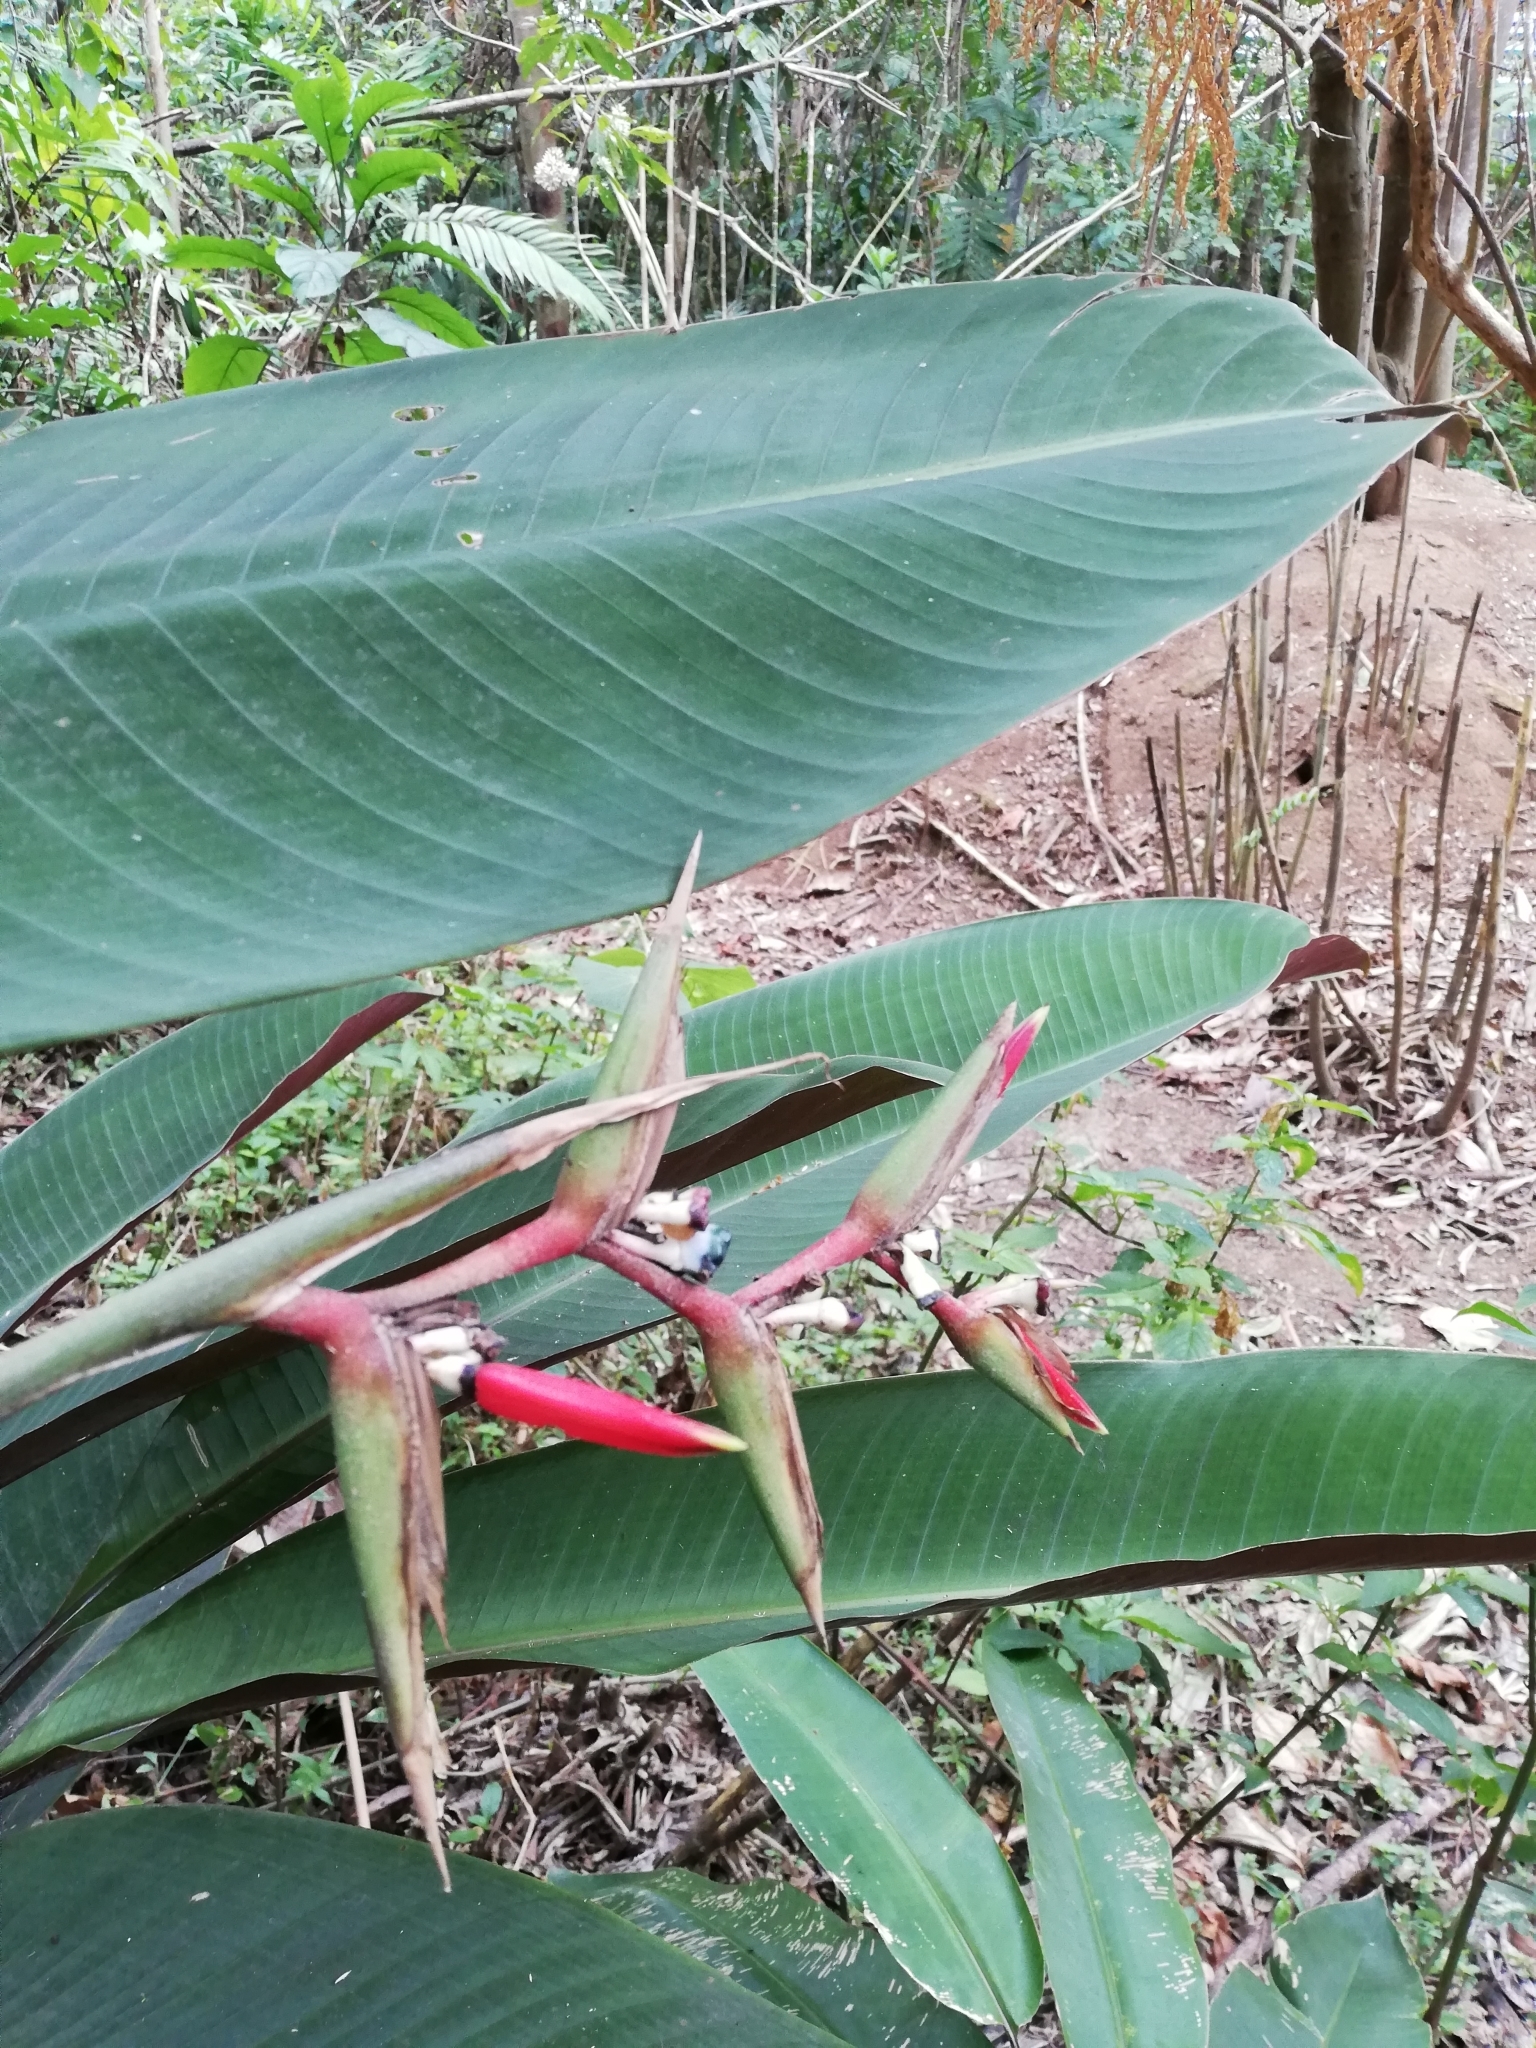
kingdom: Plantae
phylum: Tracheophyta
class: Liliopsida
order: Zingiberales
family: Heliconiaceae
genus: Heliconia
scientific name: Heliconia metallica
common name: Shining bird of paradise
